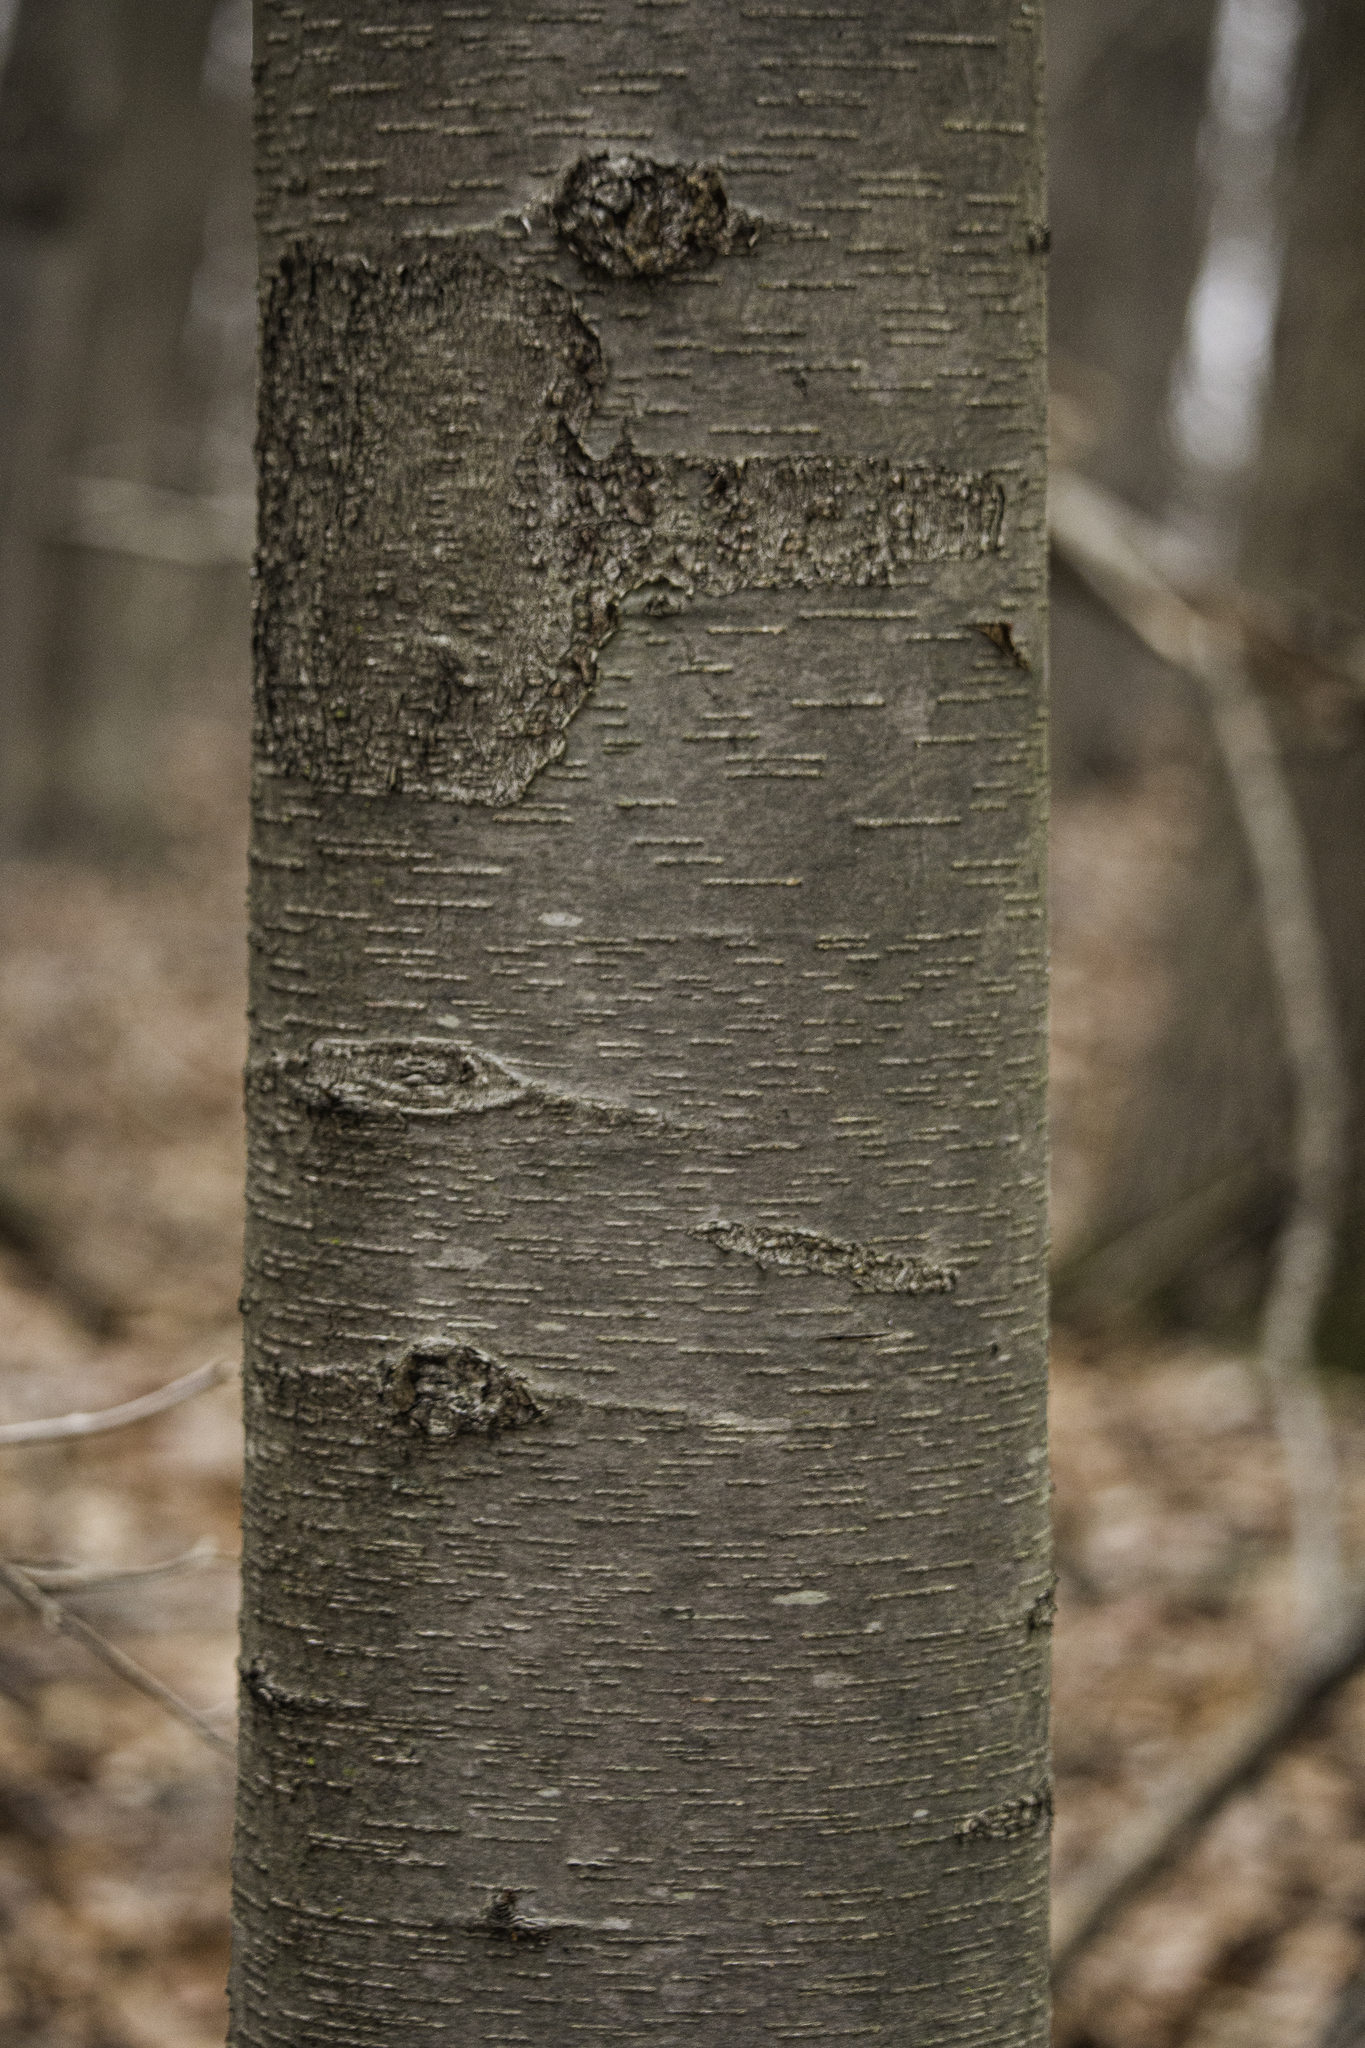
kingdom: Plantae
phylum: Tracheophyta
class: Magnoliopsida
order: Fagales
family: Betulaceae
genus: Betula
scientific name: Betula lenta
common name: Black birch
